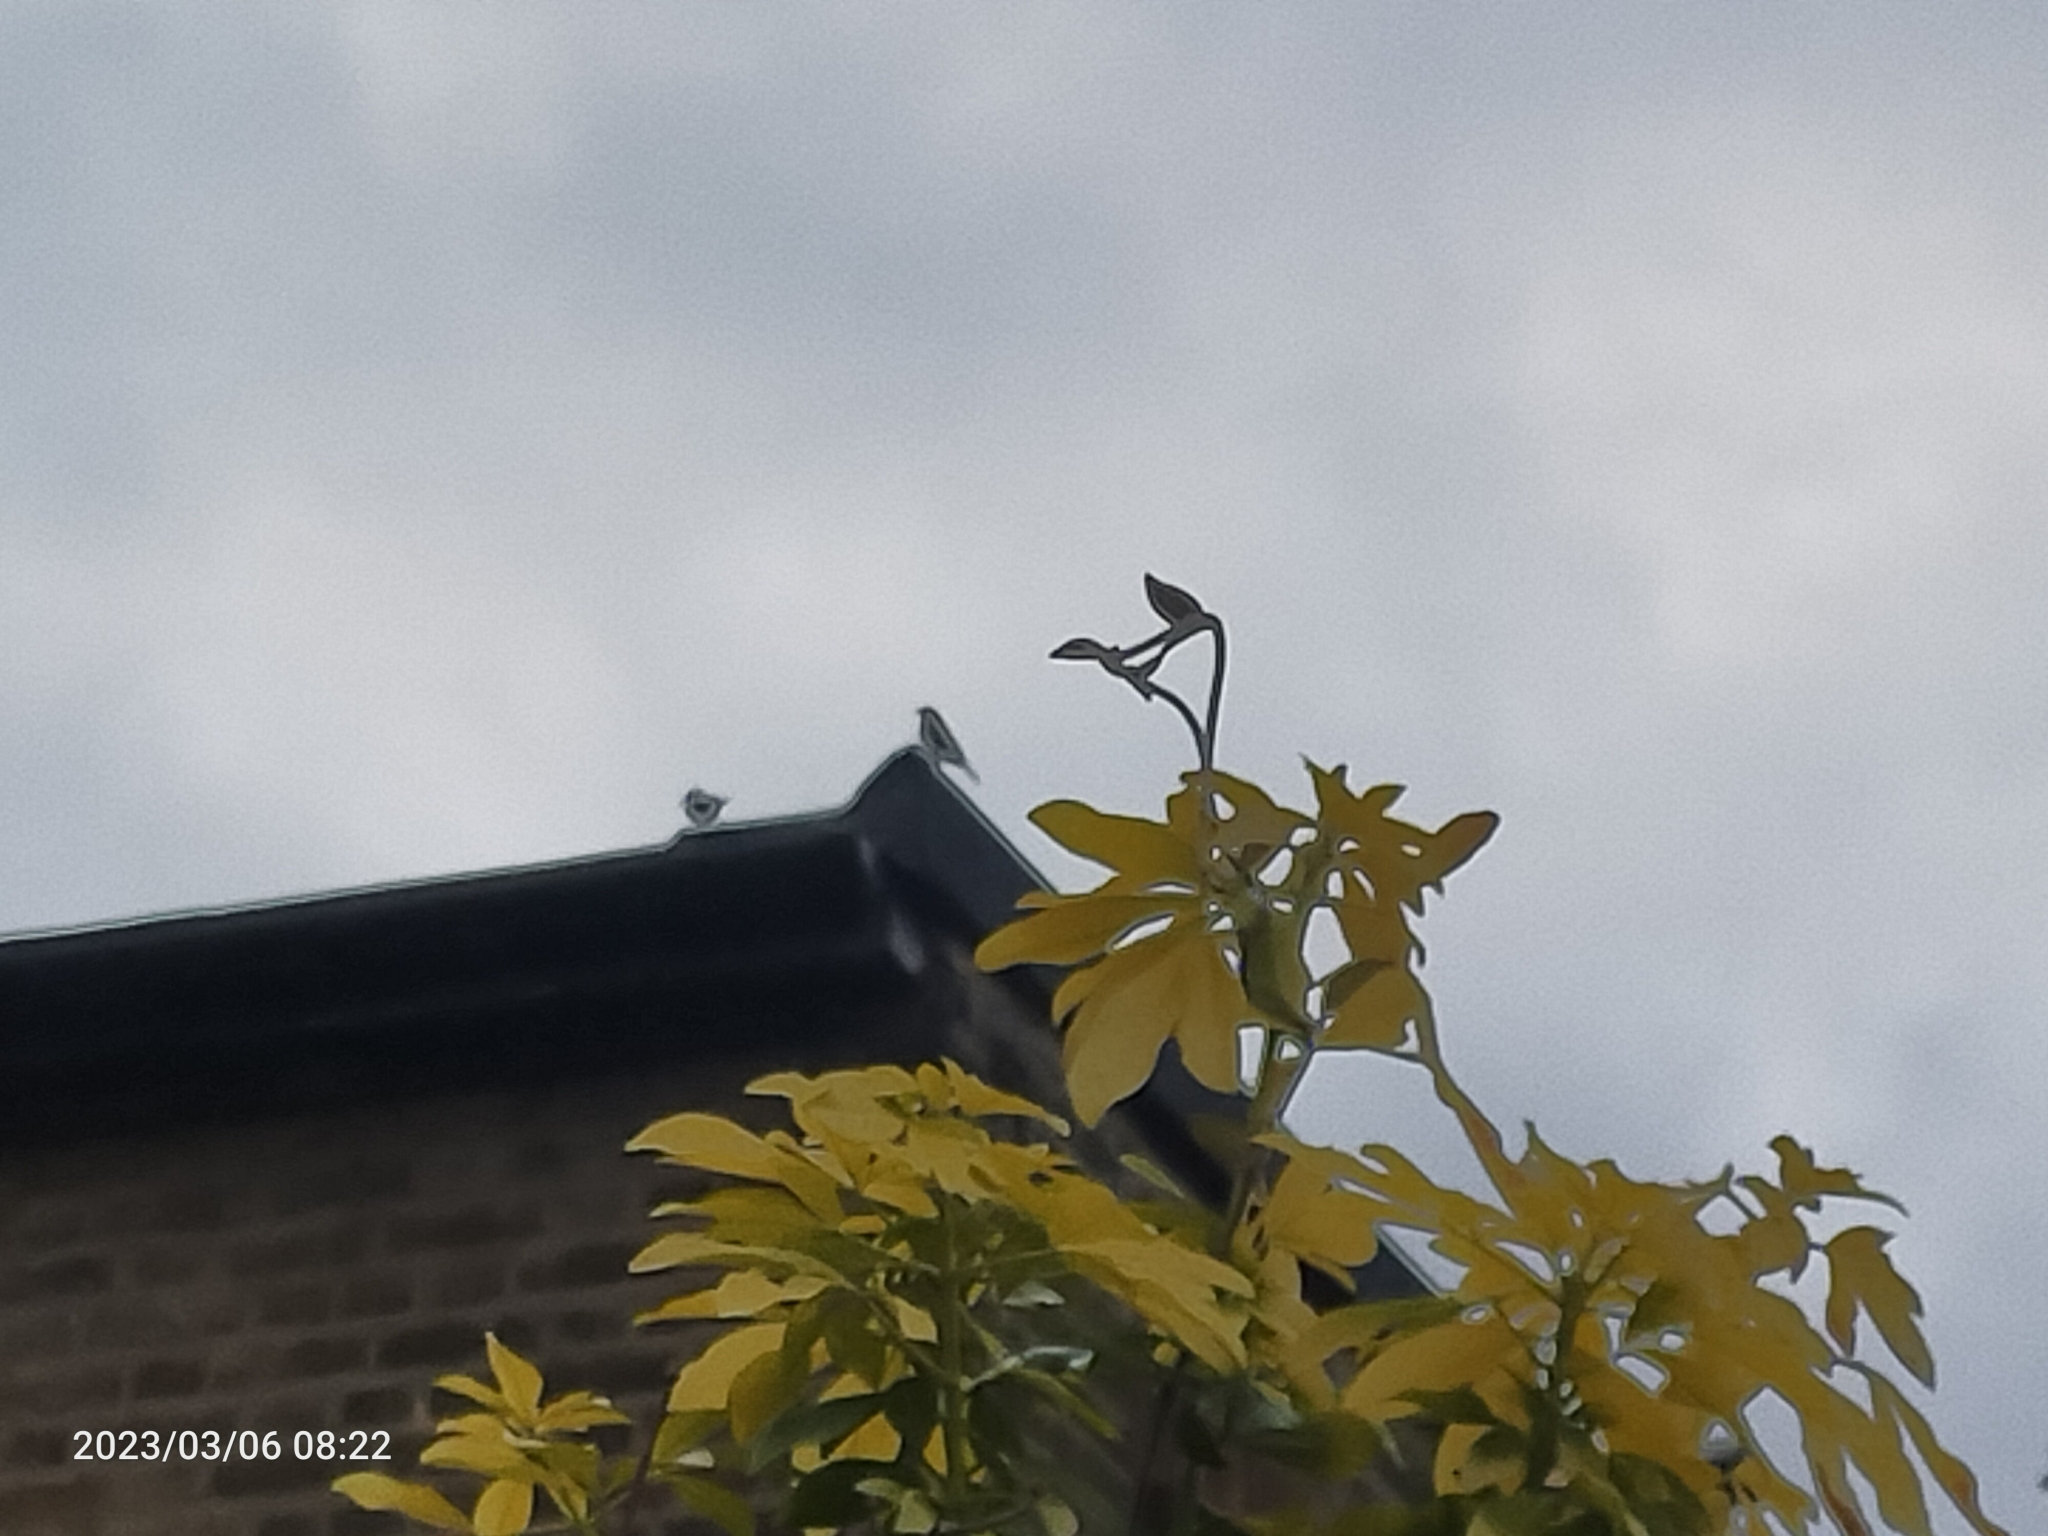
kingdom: Plantae
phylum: Tracheophyta
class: Liliopsida
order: Poales
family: Poaceae
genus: Chloris
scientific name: Chloris chloris
